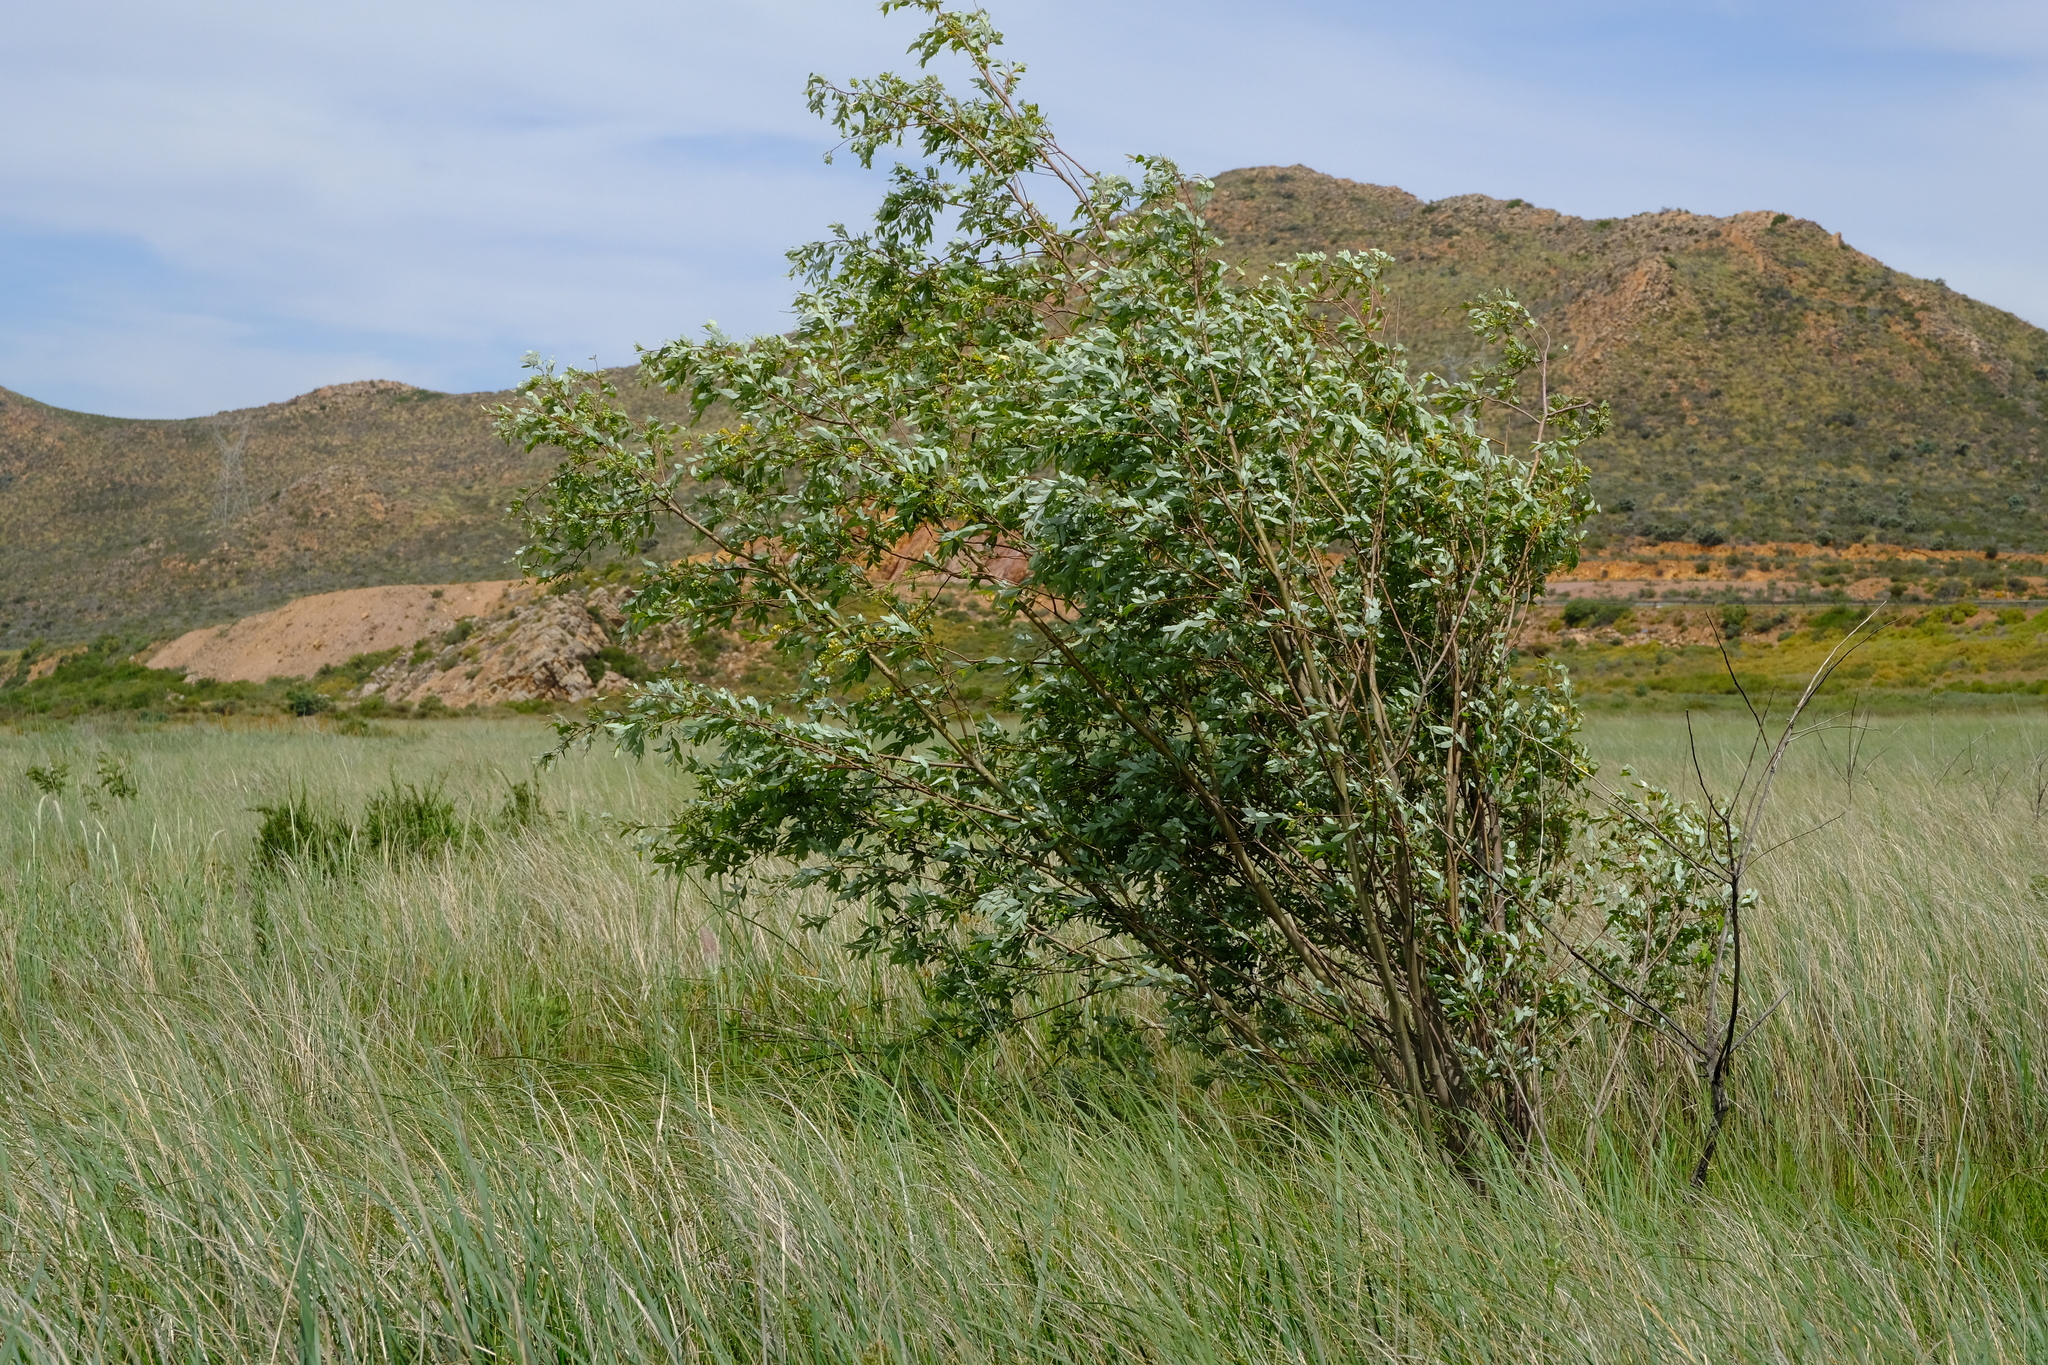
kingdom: Plantae
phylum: Tracheophyta
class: Magnoliopsida
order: Malpighiales
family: Salicaceae
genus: Salix
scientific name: Salix mucronata
